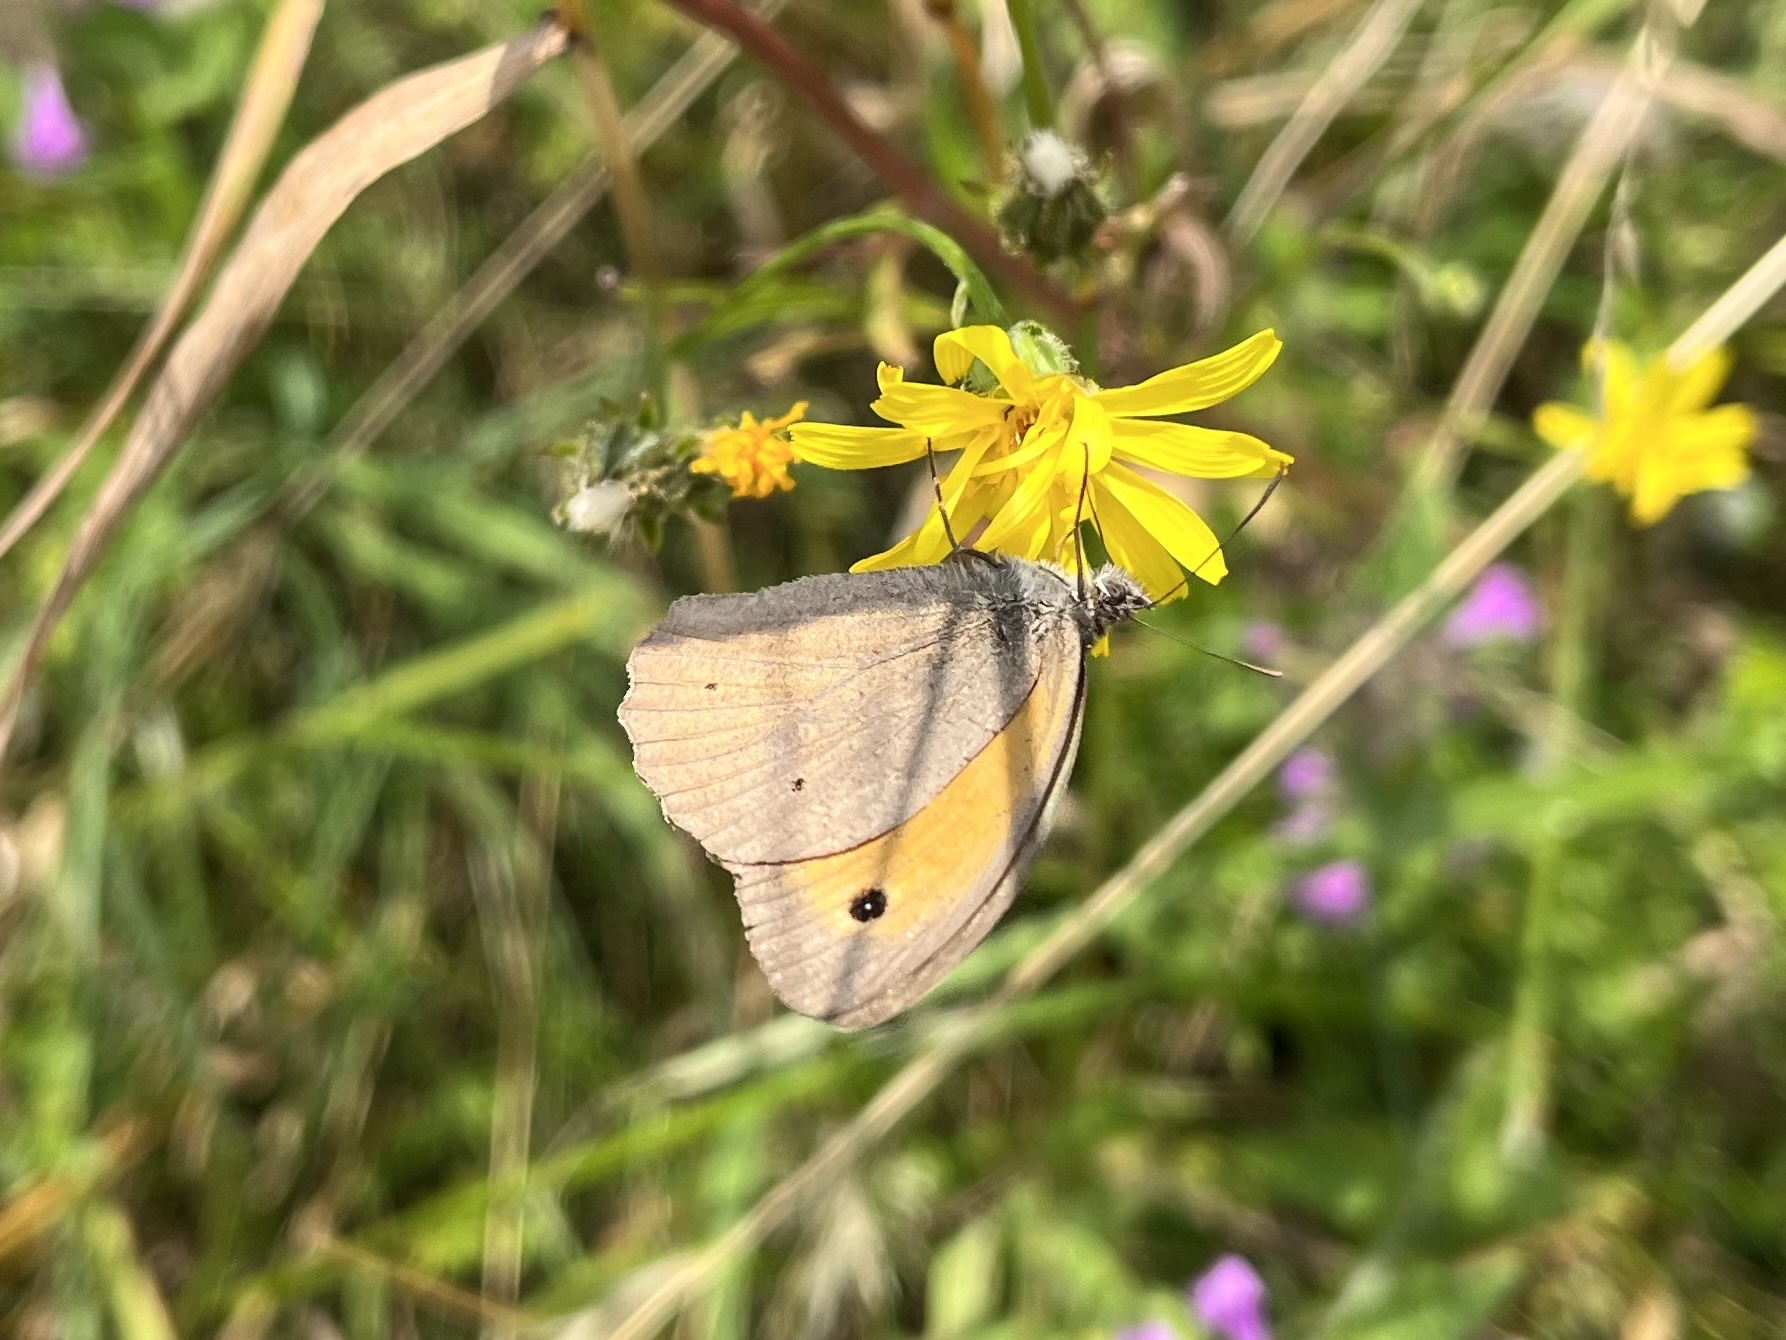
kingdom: Animalia
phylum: Arthropoda
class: Insecta
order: Lepidoptera
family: Nymphalidae
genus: Maniola
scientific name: Maniola jurtina
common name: Meadow brown
